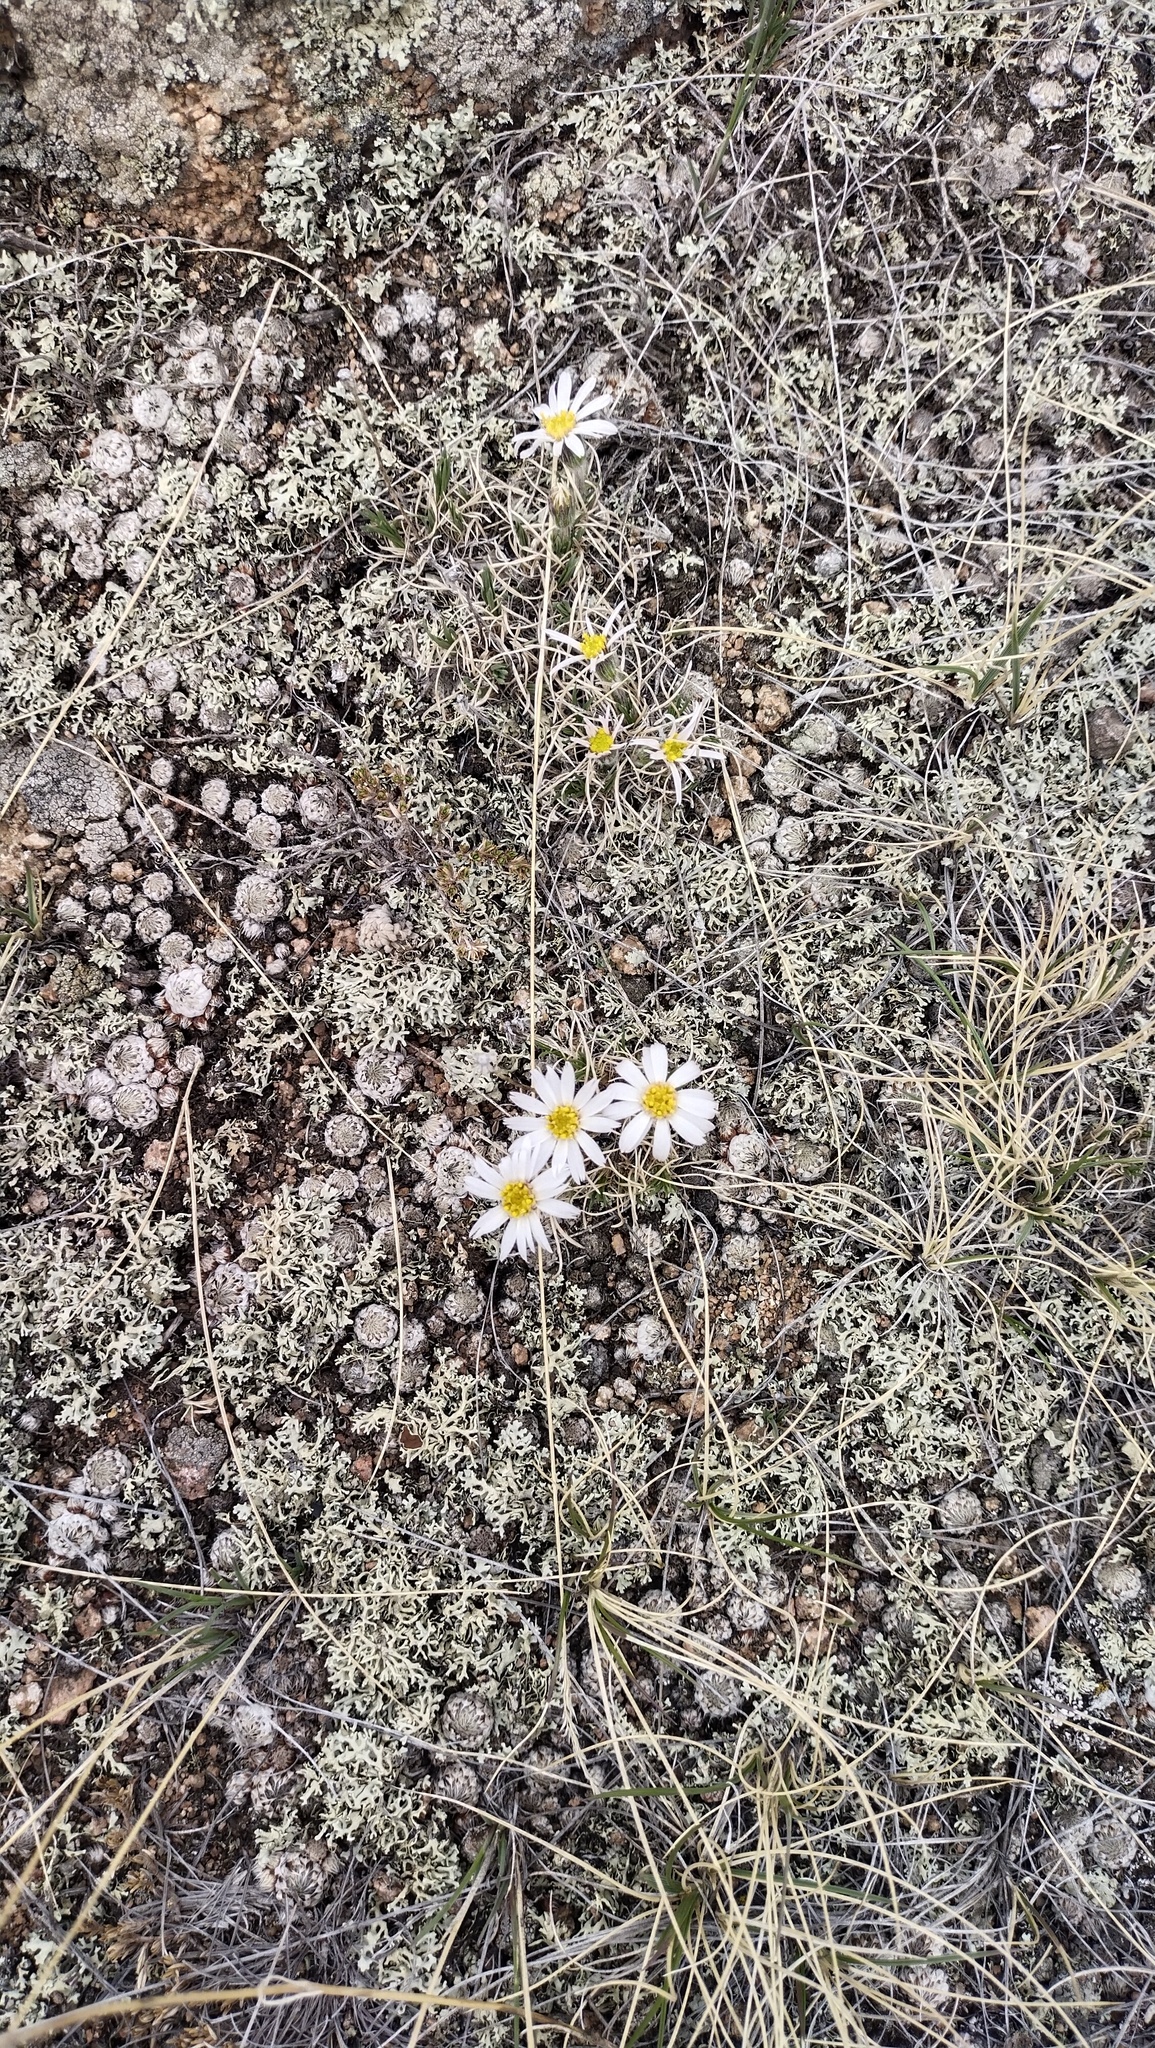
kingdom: Plantae
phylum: Tracheophyta
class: Magnoliopsida
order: Asterales
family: Asteraceae
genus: Arctogeron
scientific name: Arctogeron gramineum
